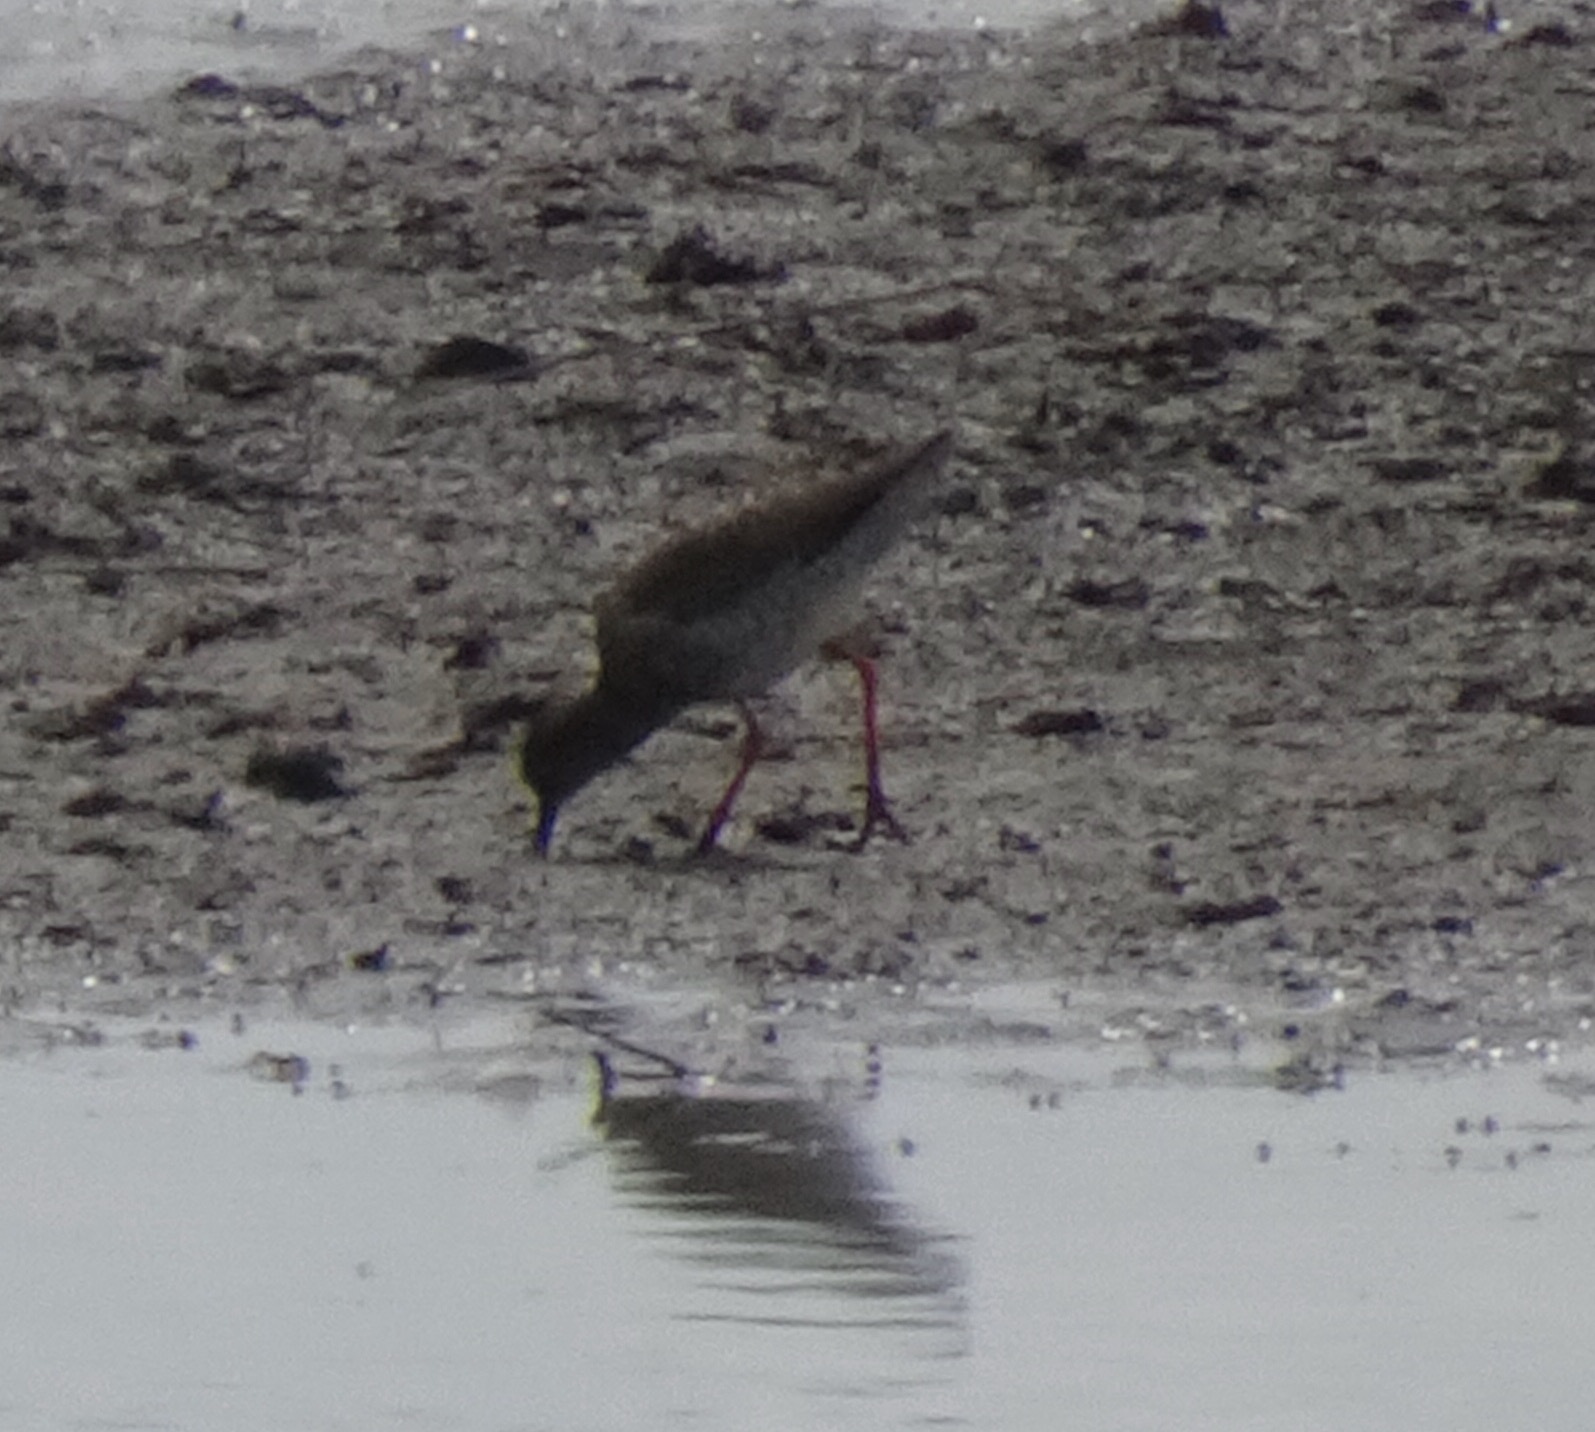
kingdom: Animalia
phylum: Chordata
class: Aves
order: Charadriiformes
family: Scolopacidae
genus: Tringa
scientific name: Tringa totanus
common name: Common redshank
